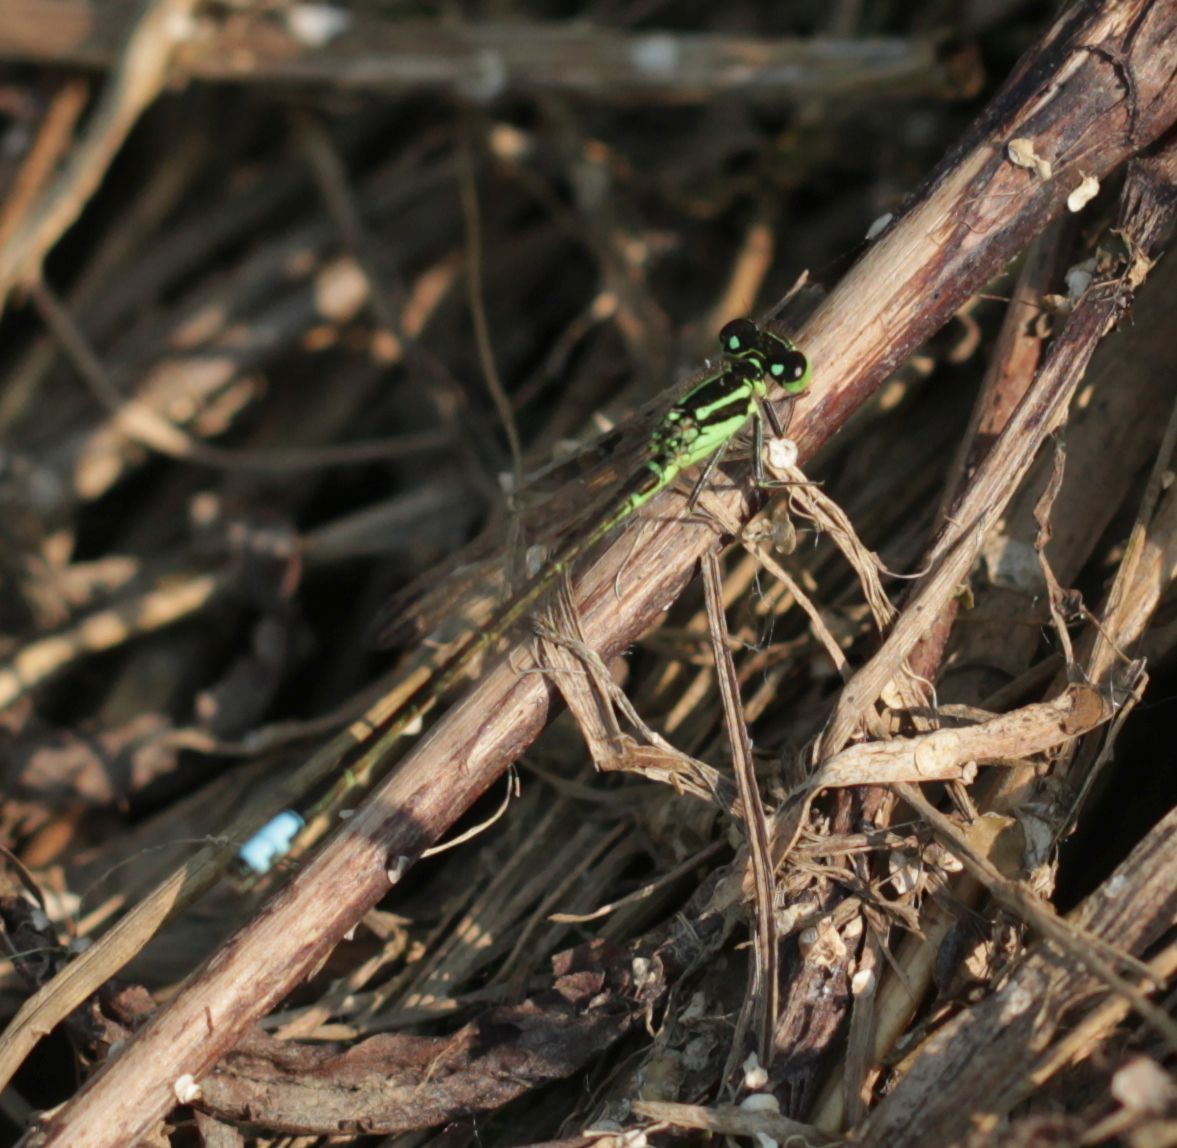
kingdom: Animalia
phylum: Arthropoda
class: Insecta
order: Odonata
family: Coenagrionidae
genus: Ischnura
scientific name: Ischnura verticalis
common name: Eastern forktail
